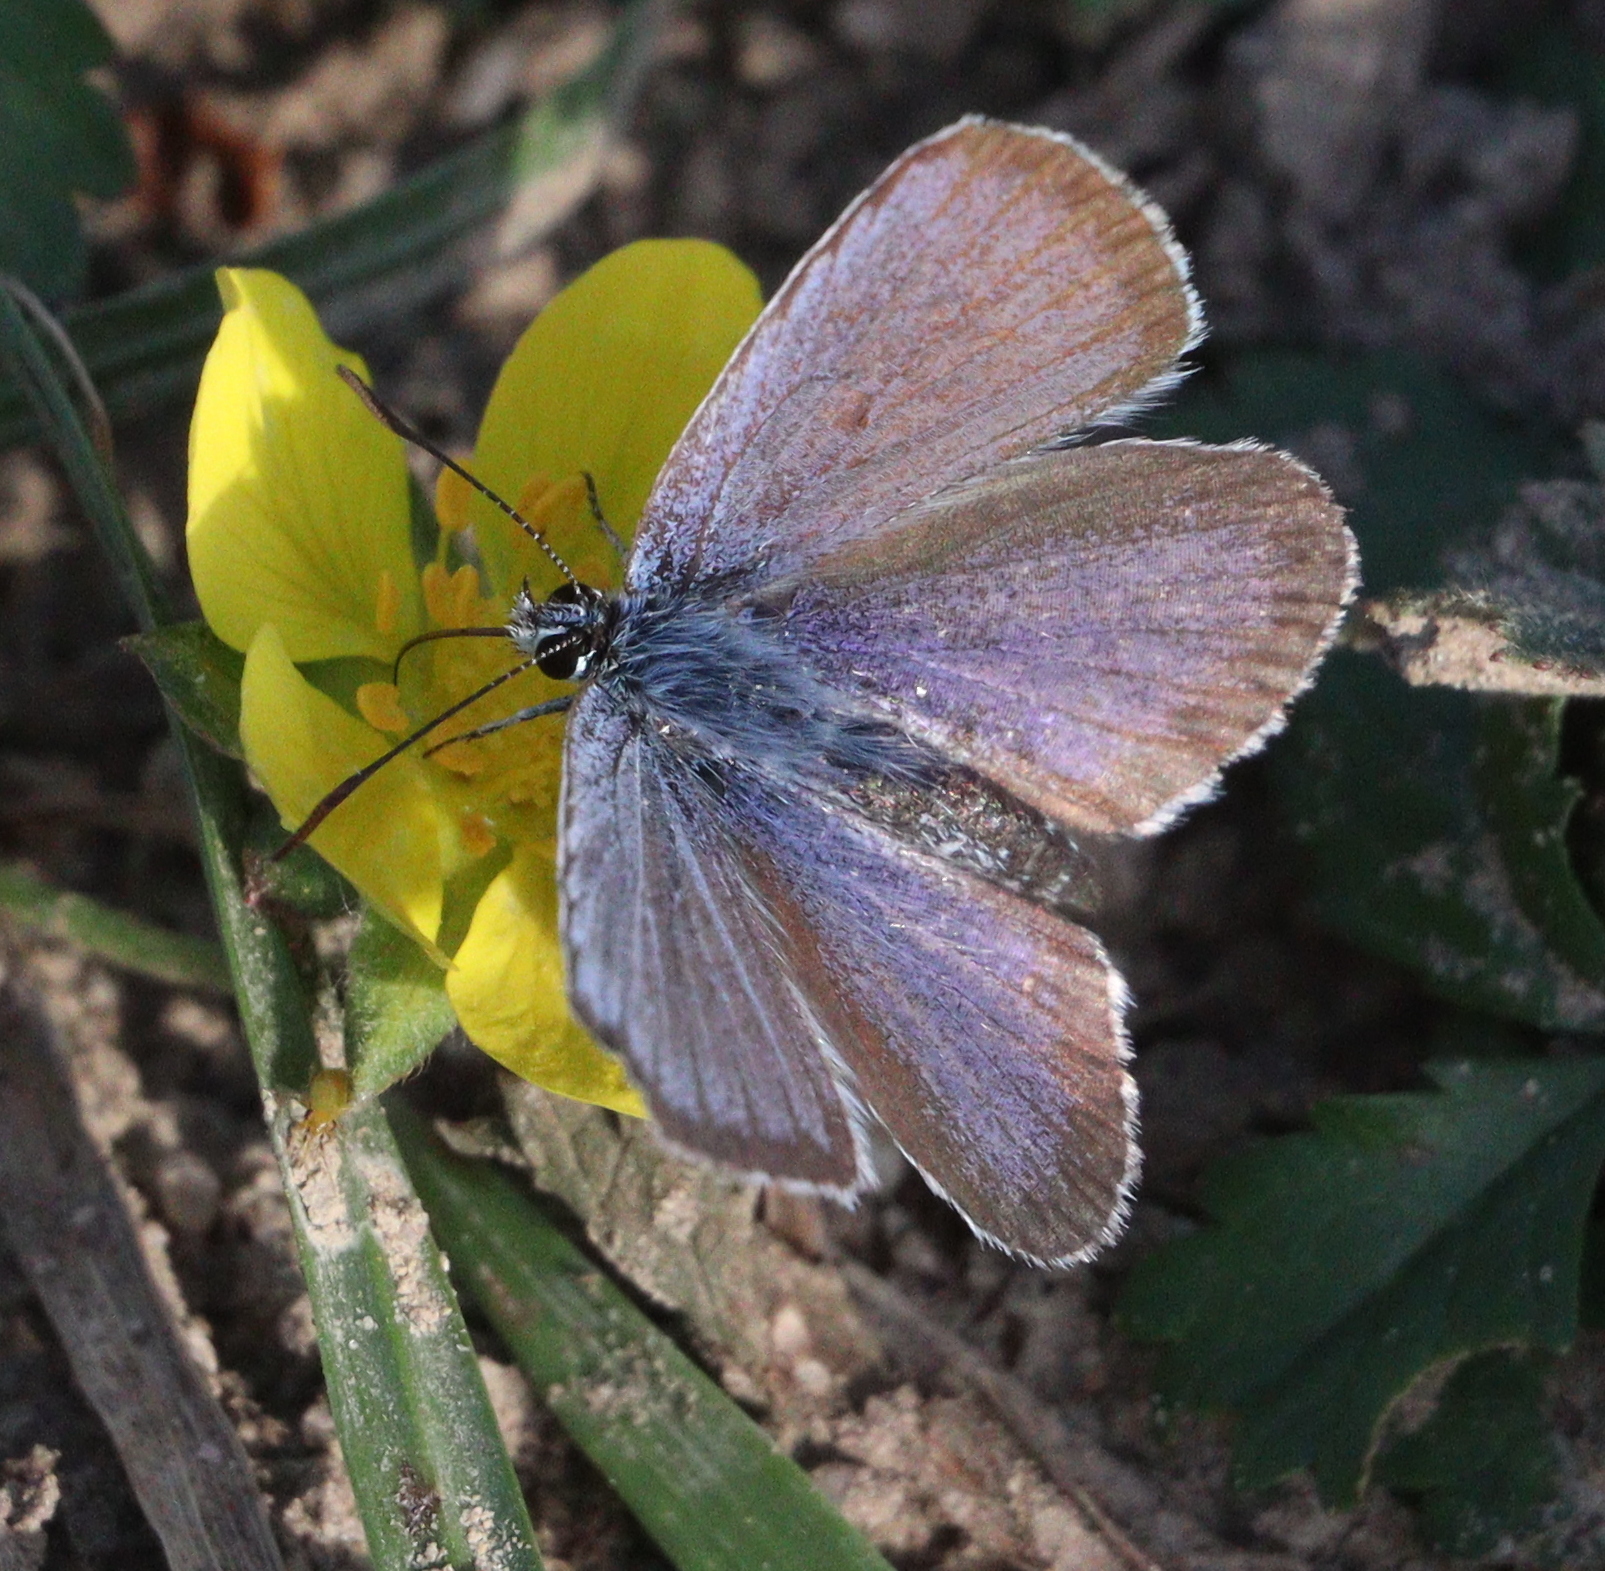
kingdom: Animalia
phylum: Arthropoda
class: Insecta
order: Lepidoptera
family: Lycaenidae
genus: Plebejus
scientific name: Plebejus argus
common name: Silver-studded blue
